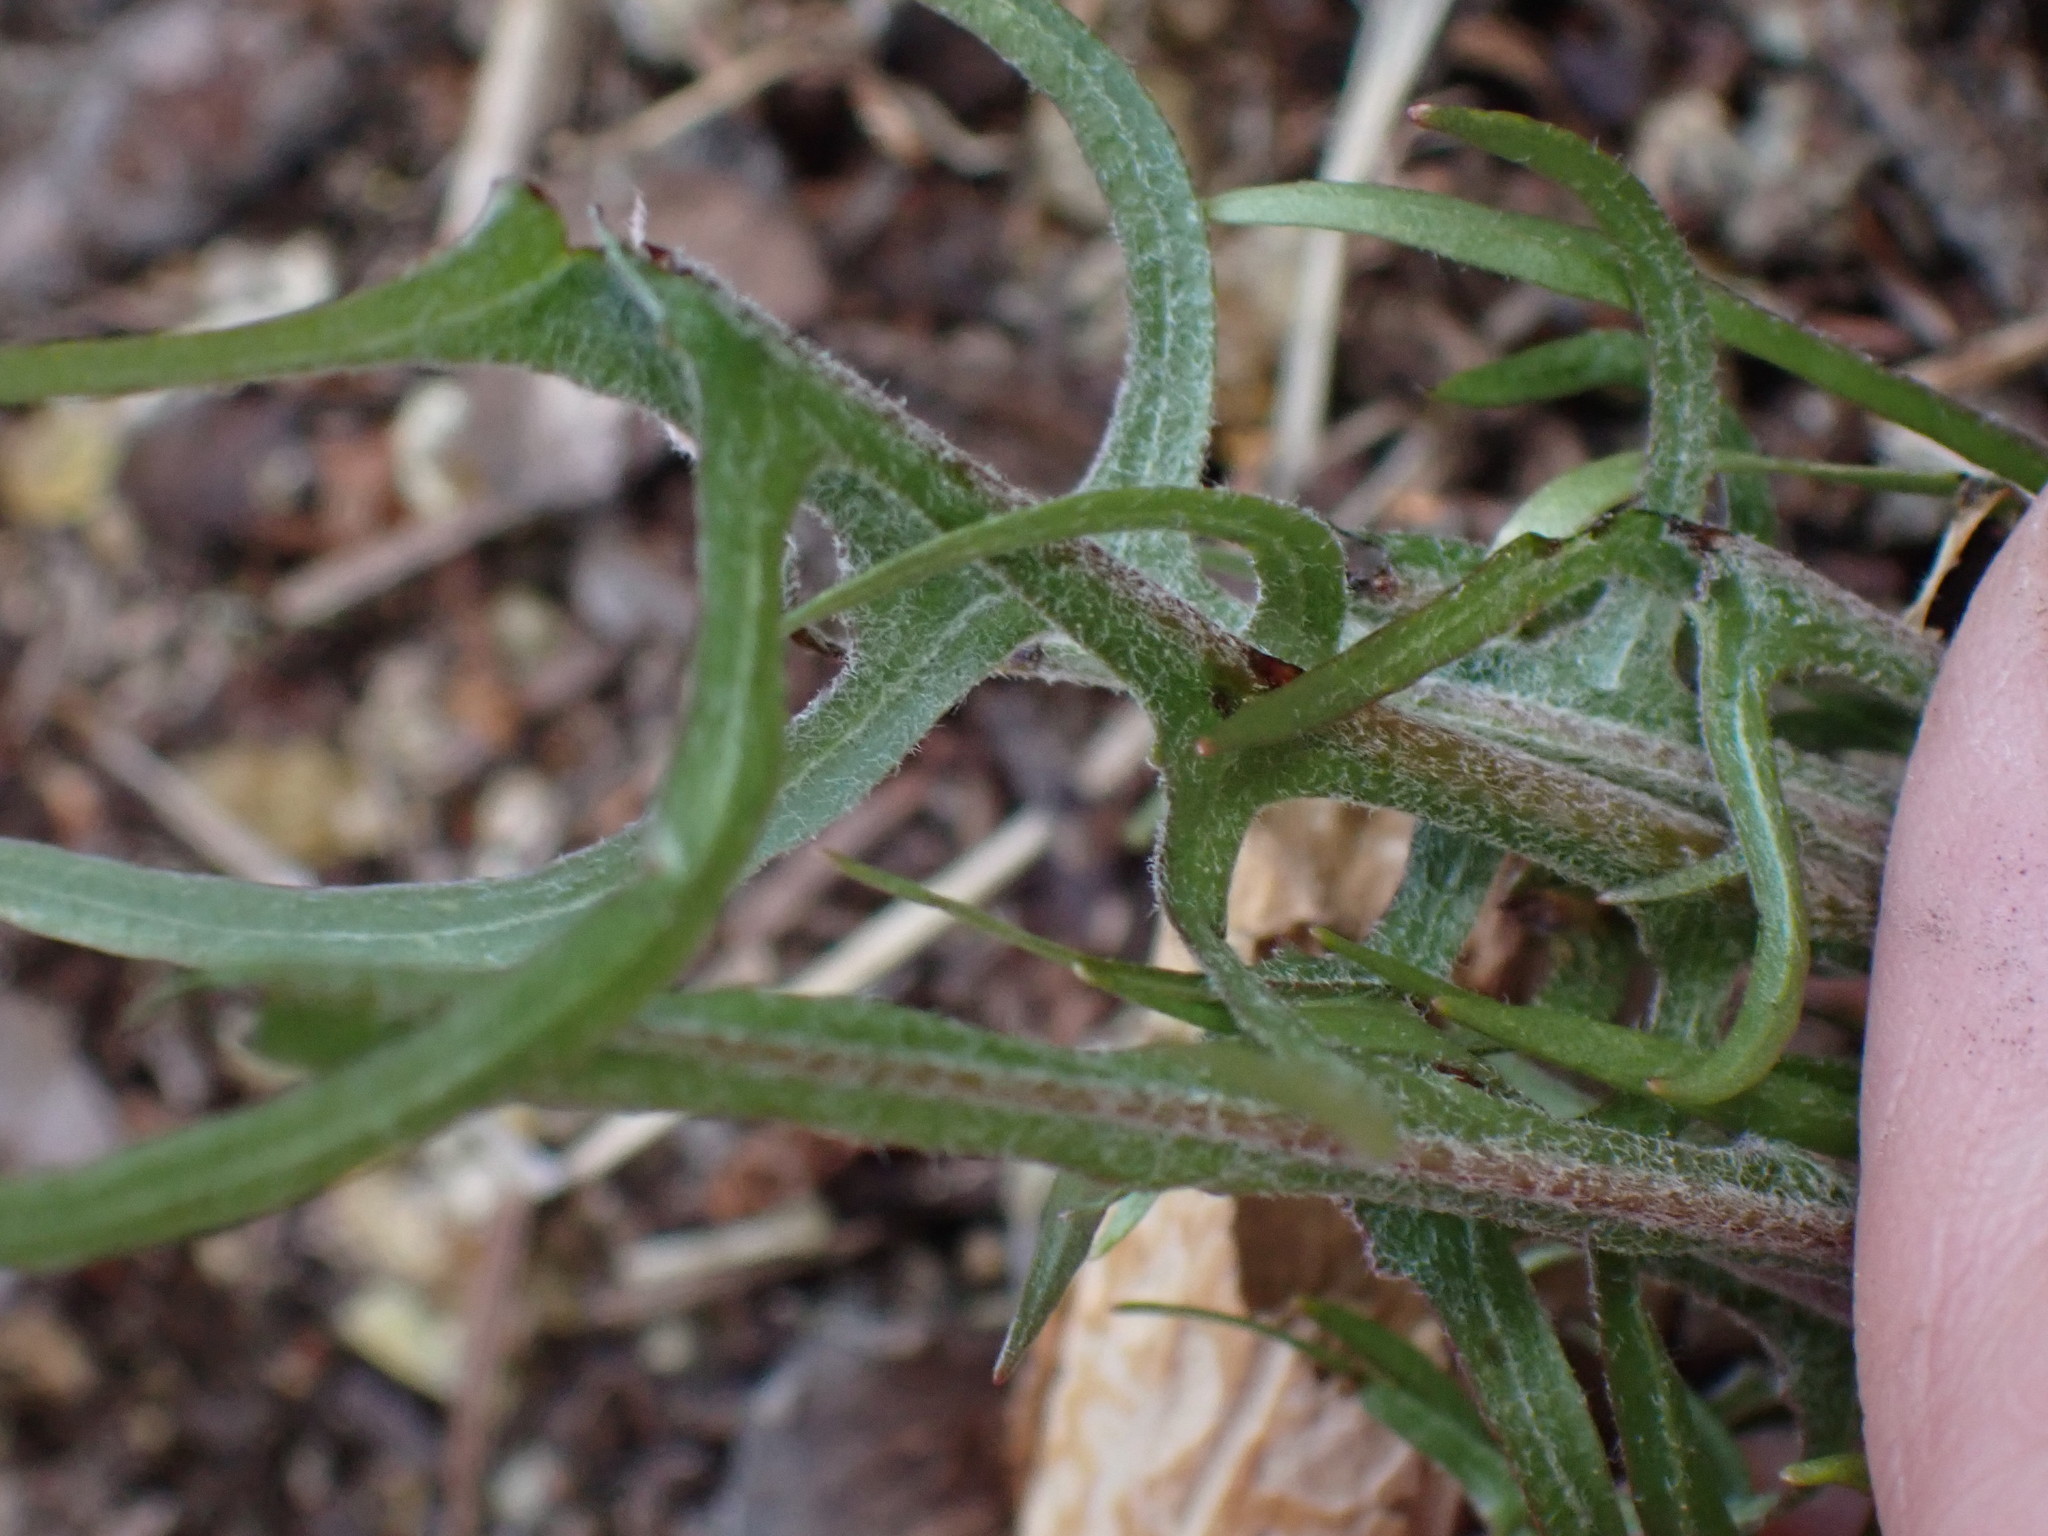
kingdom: Plantae
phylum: Tracheophyta
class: Magnoliopsida
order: Asterales
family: Asteraceae
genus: Crepis
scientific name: Crepis atribarba
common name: Dark hawk's-beard
